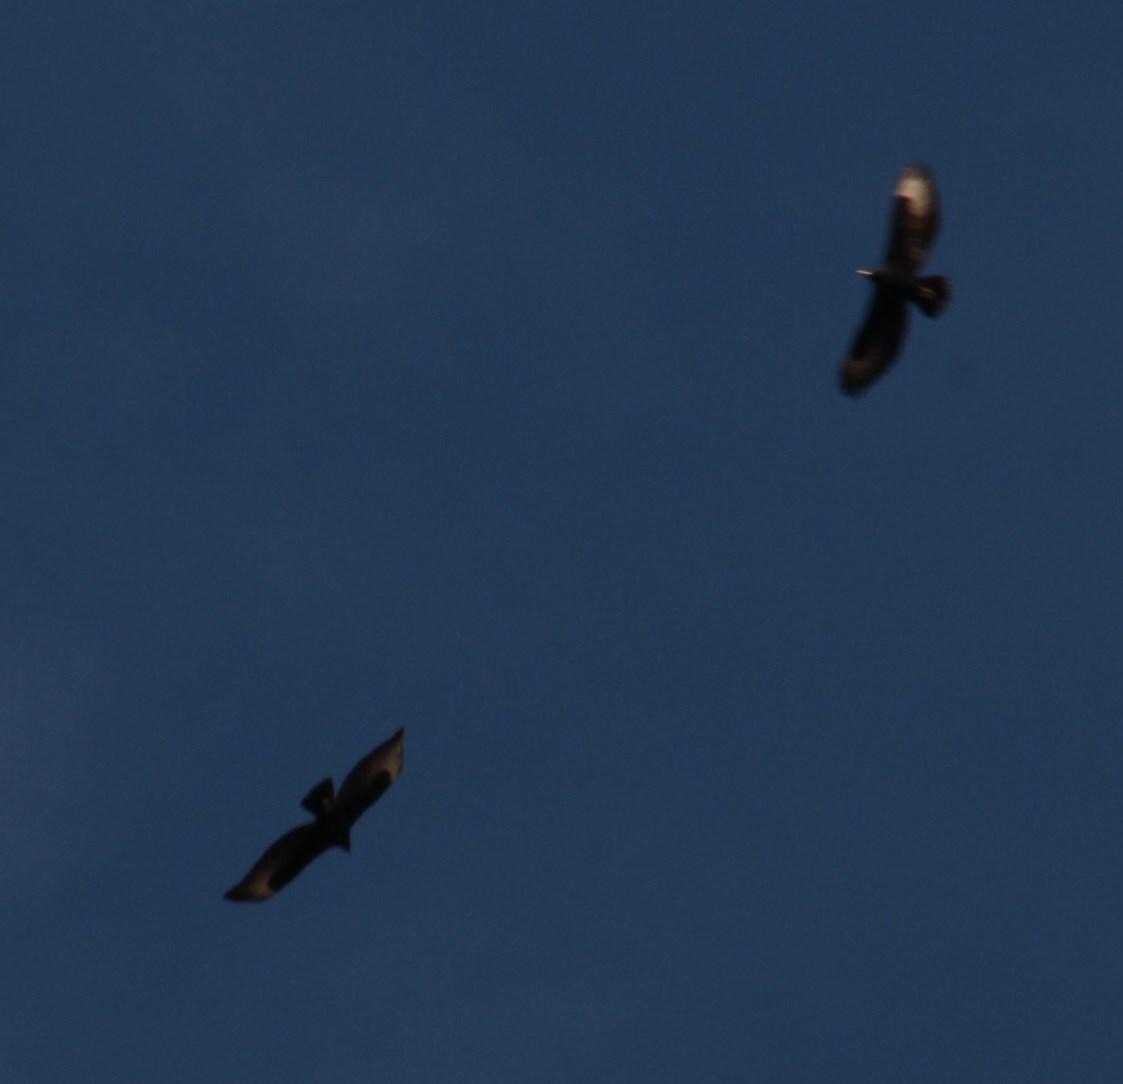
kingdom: Animalia
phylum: Chordata
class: Aves
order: Accipitriformes
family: Accipitridae
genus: Aquila
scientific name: Aquila verreauxii
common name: Verreaux's eagle
